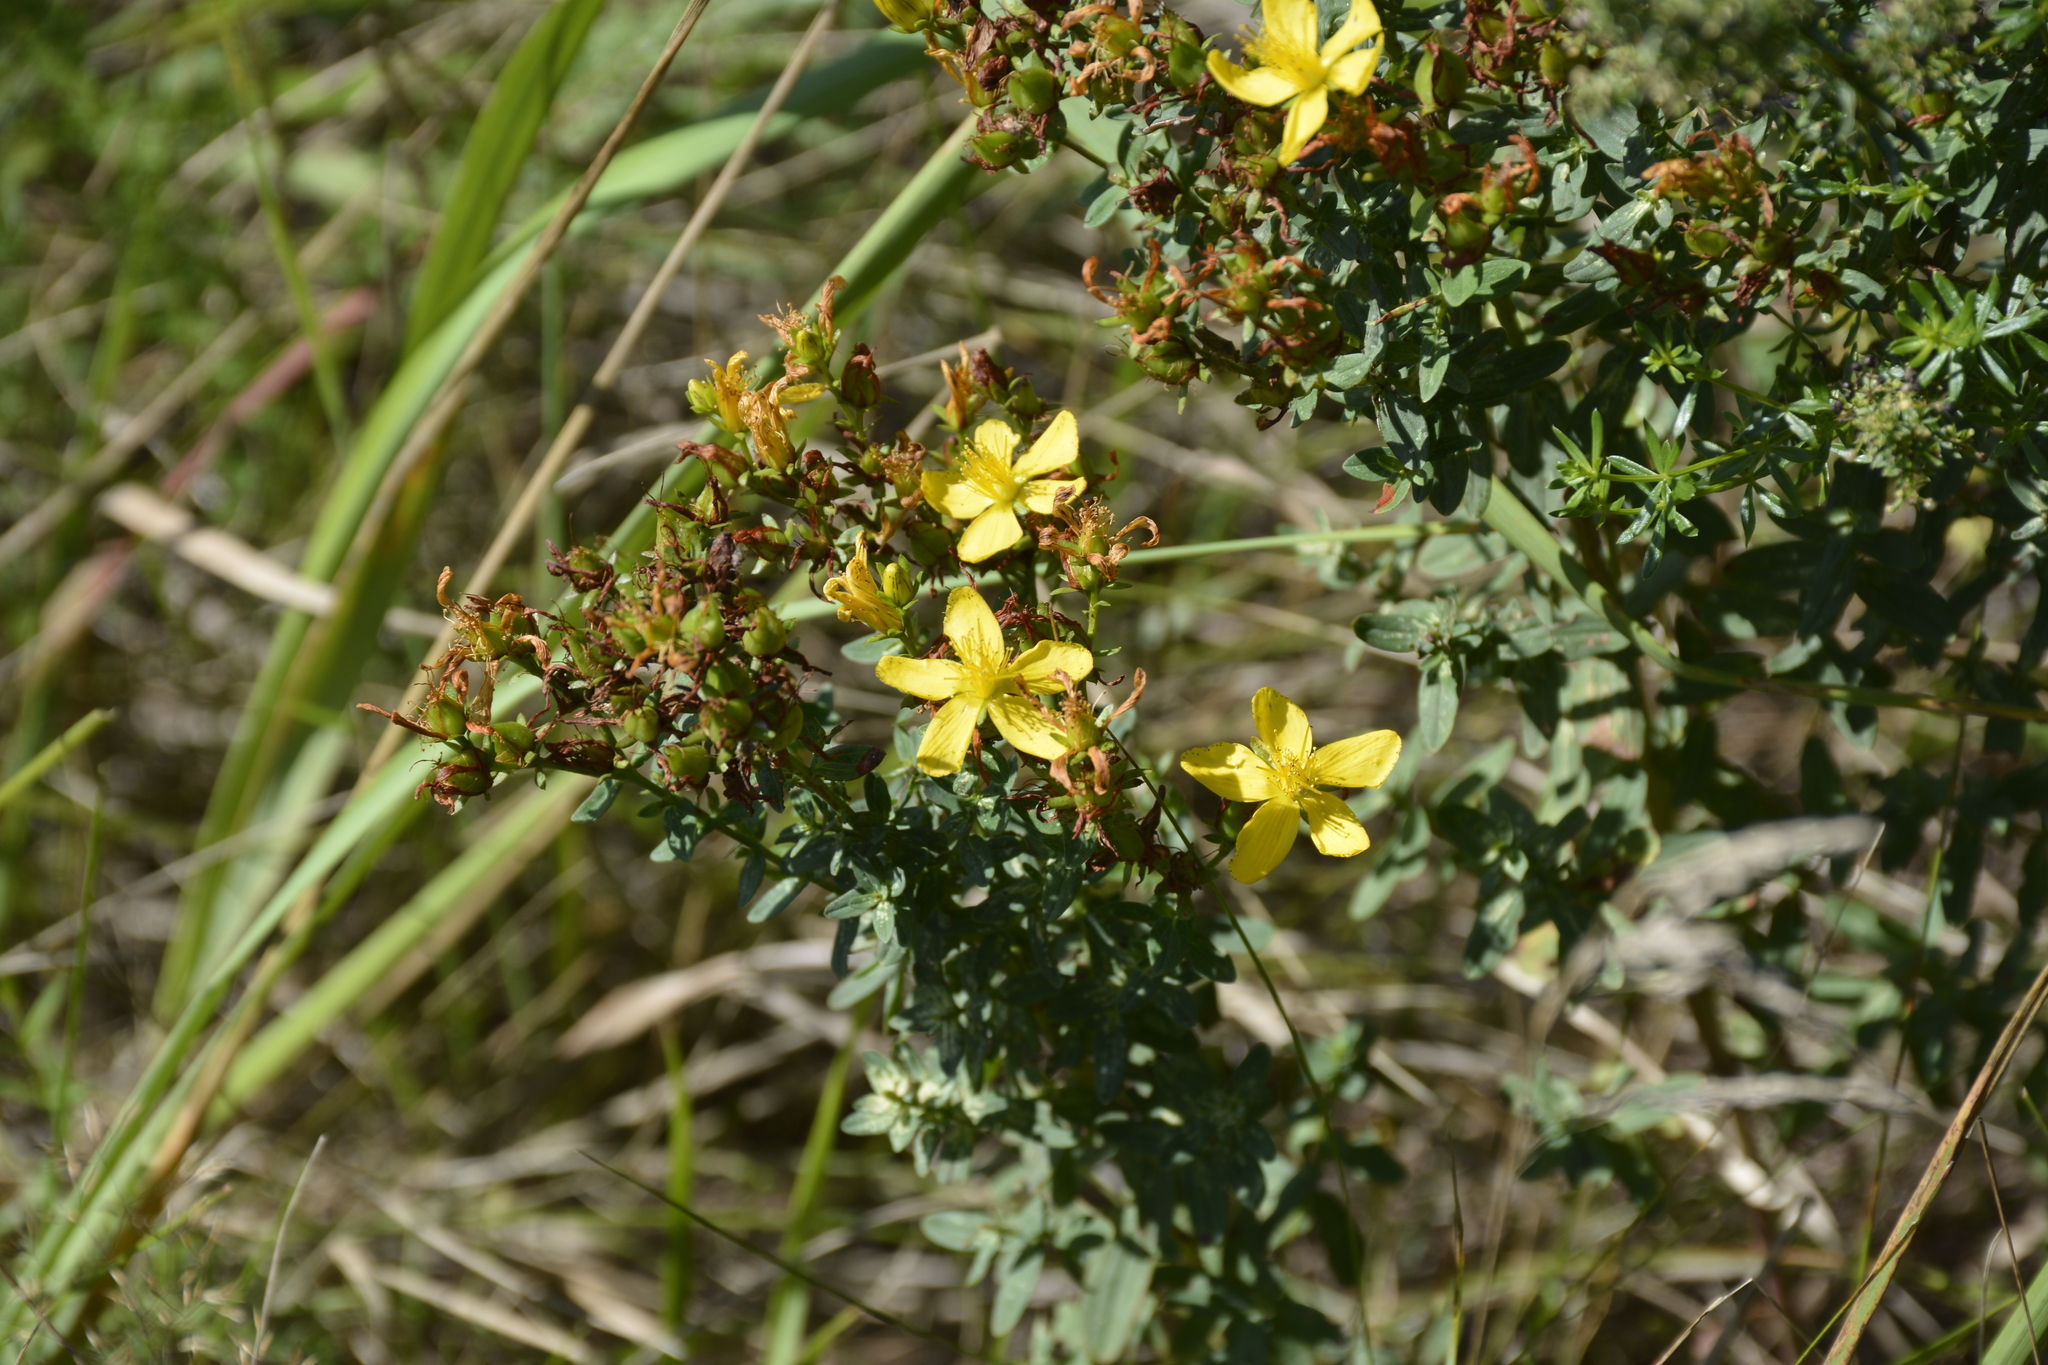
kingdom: Plantae
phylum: Tracheophyta
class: Magnoliopsida
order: Malpighiales
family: Hypericaceae
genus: Hypericum
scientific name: Hypericum perforatum
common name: Common st. johnswort
